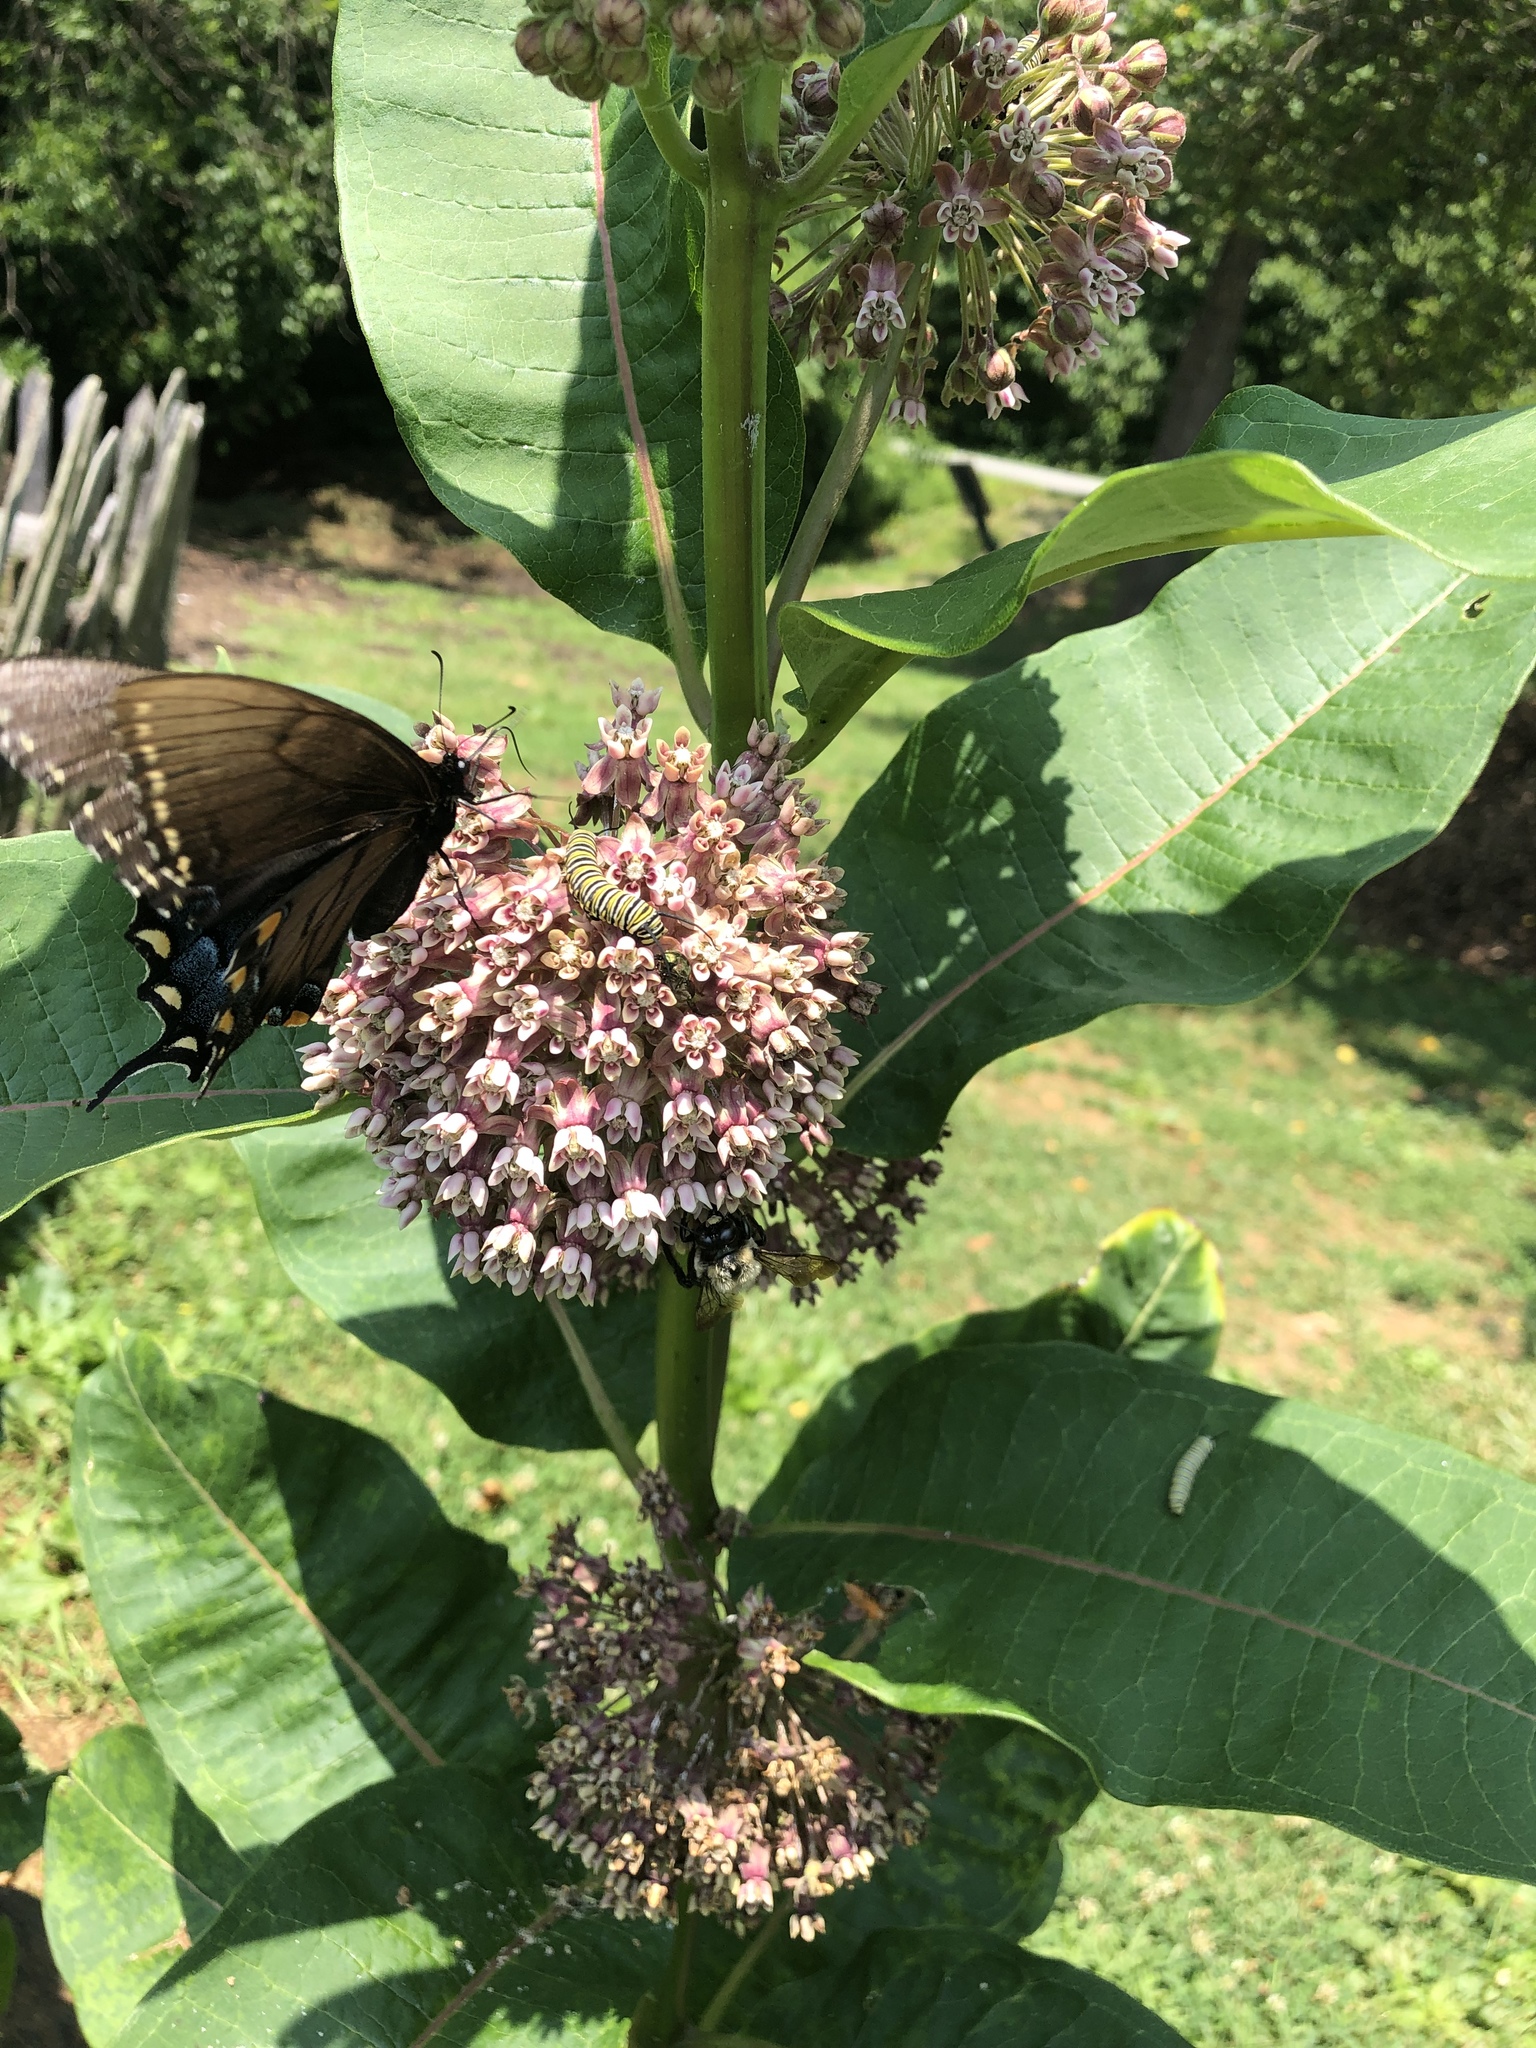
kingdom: Animalia
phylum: Arthropoda
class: Insecta
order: Lepidoptera
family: Papilionidae
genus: Papilio
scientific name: Papilio glaucus
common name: Tiger swallowtail
